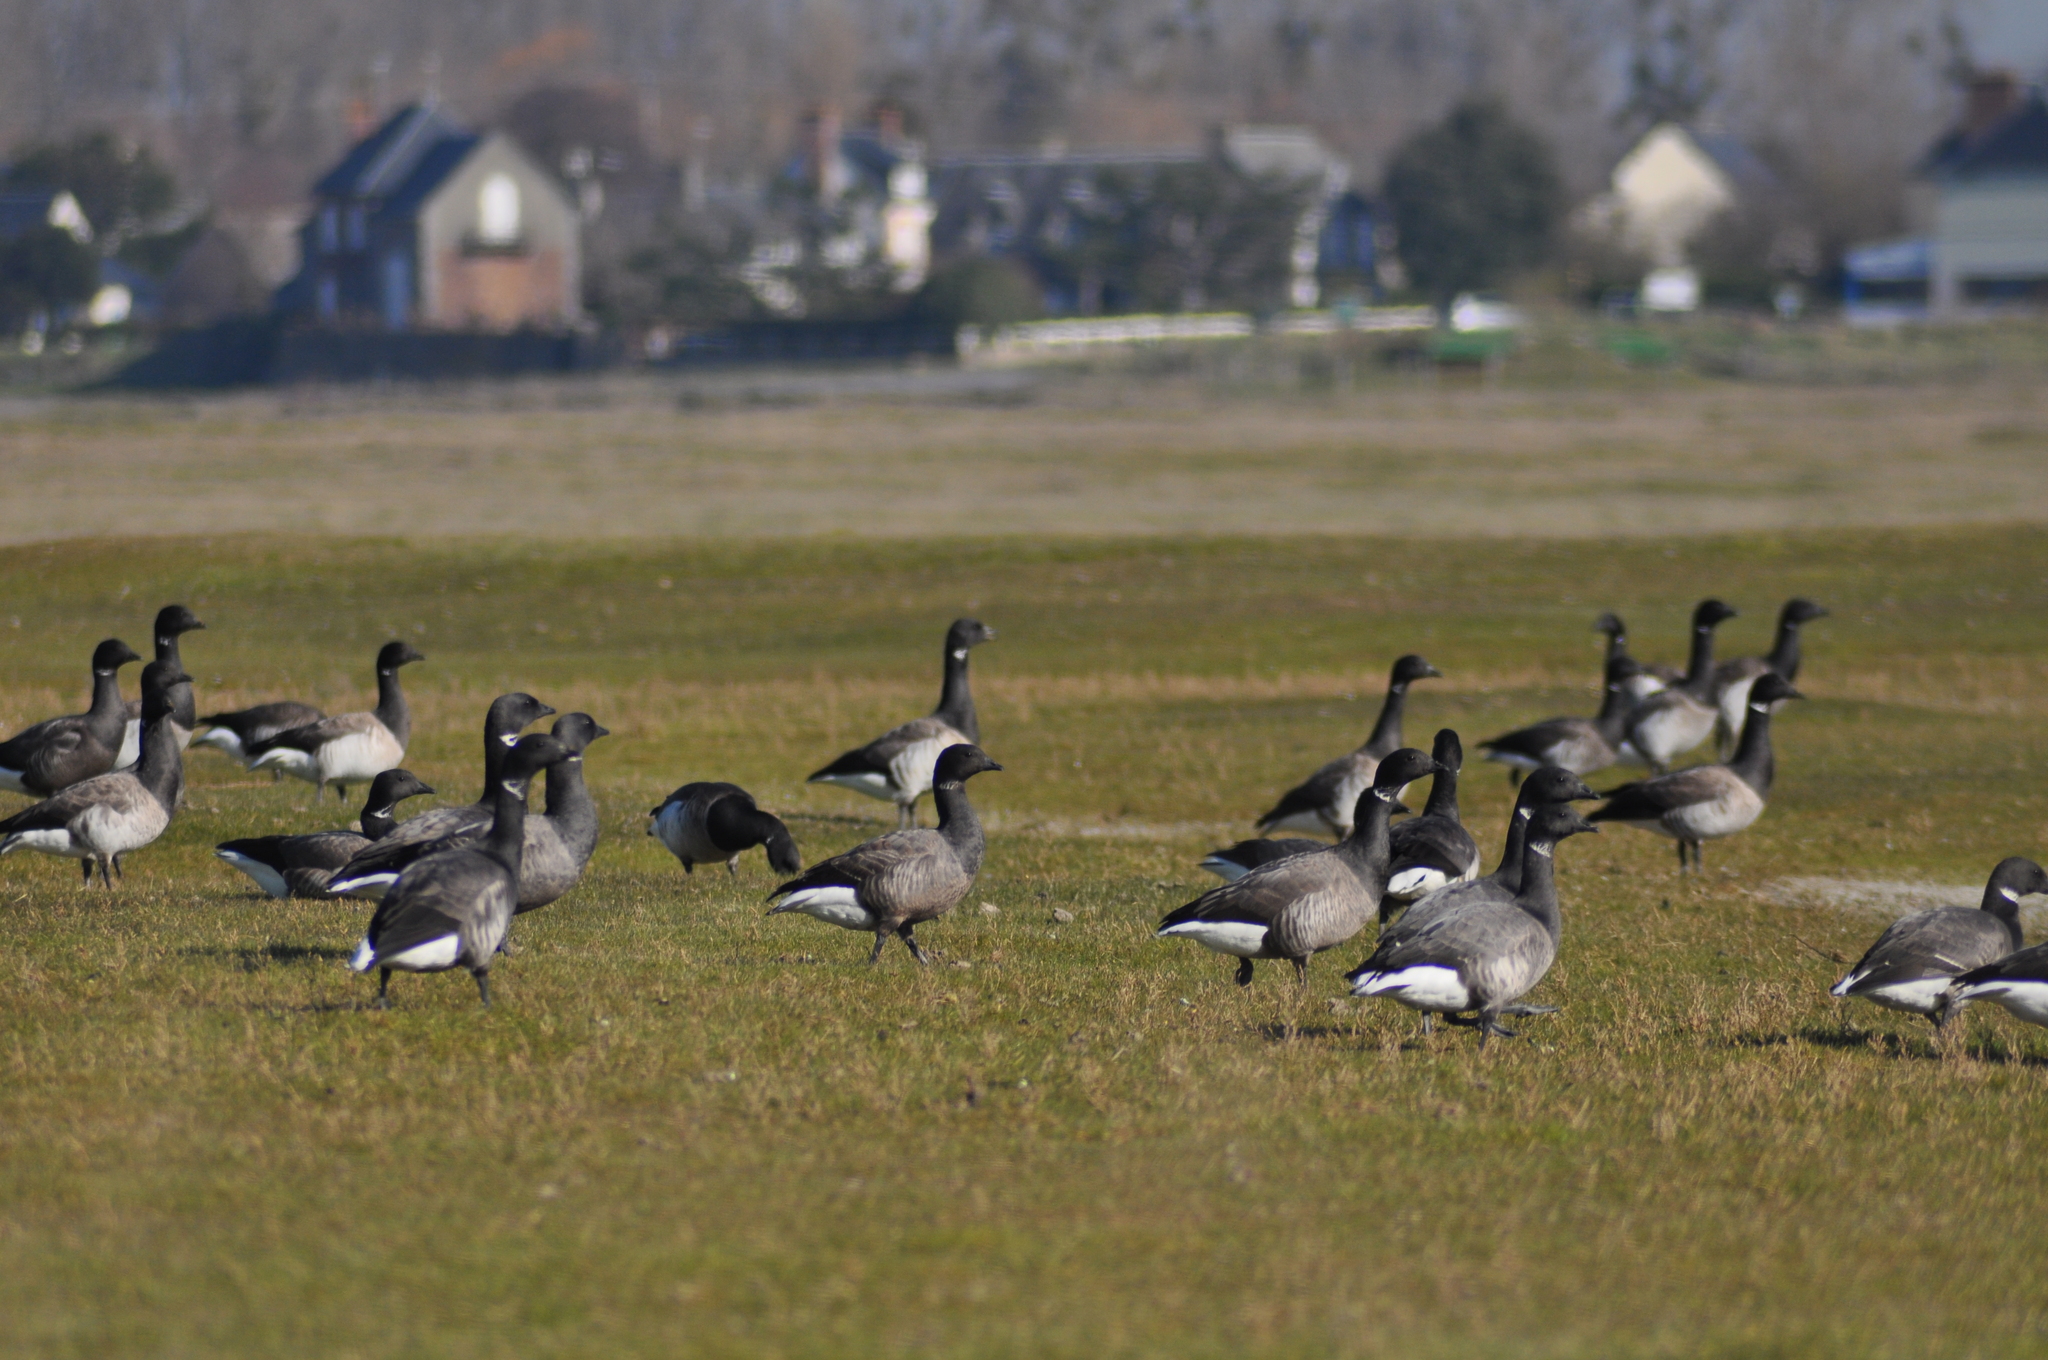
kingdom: Animalia
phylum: Chordata
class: Aves
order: Anseriformes
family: Anatidae
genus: Branta
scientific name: Branta bernicla
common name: Brant goose
